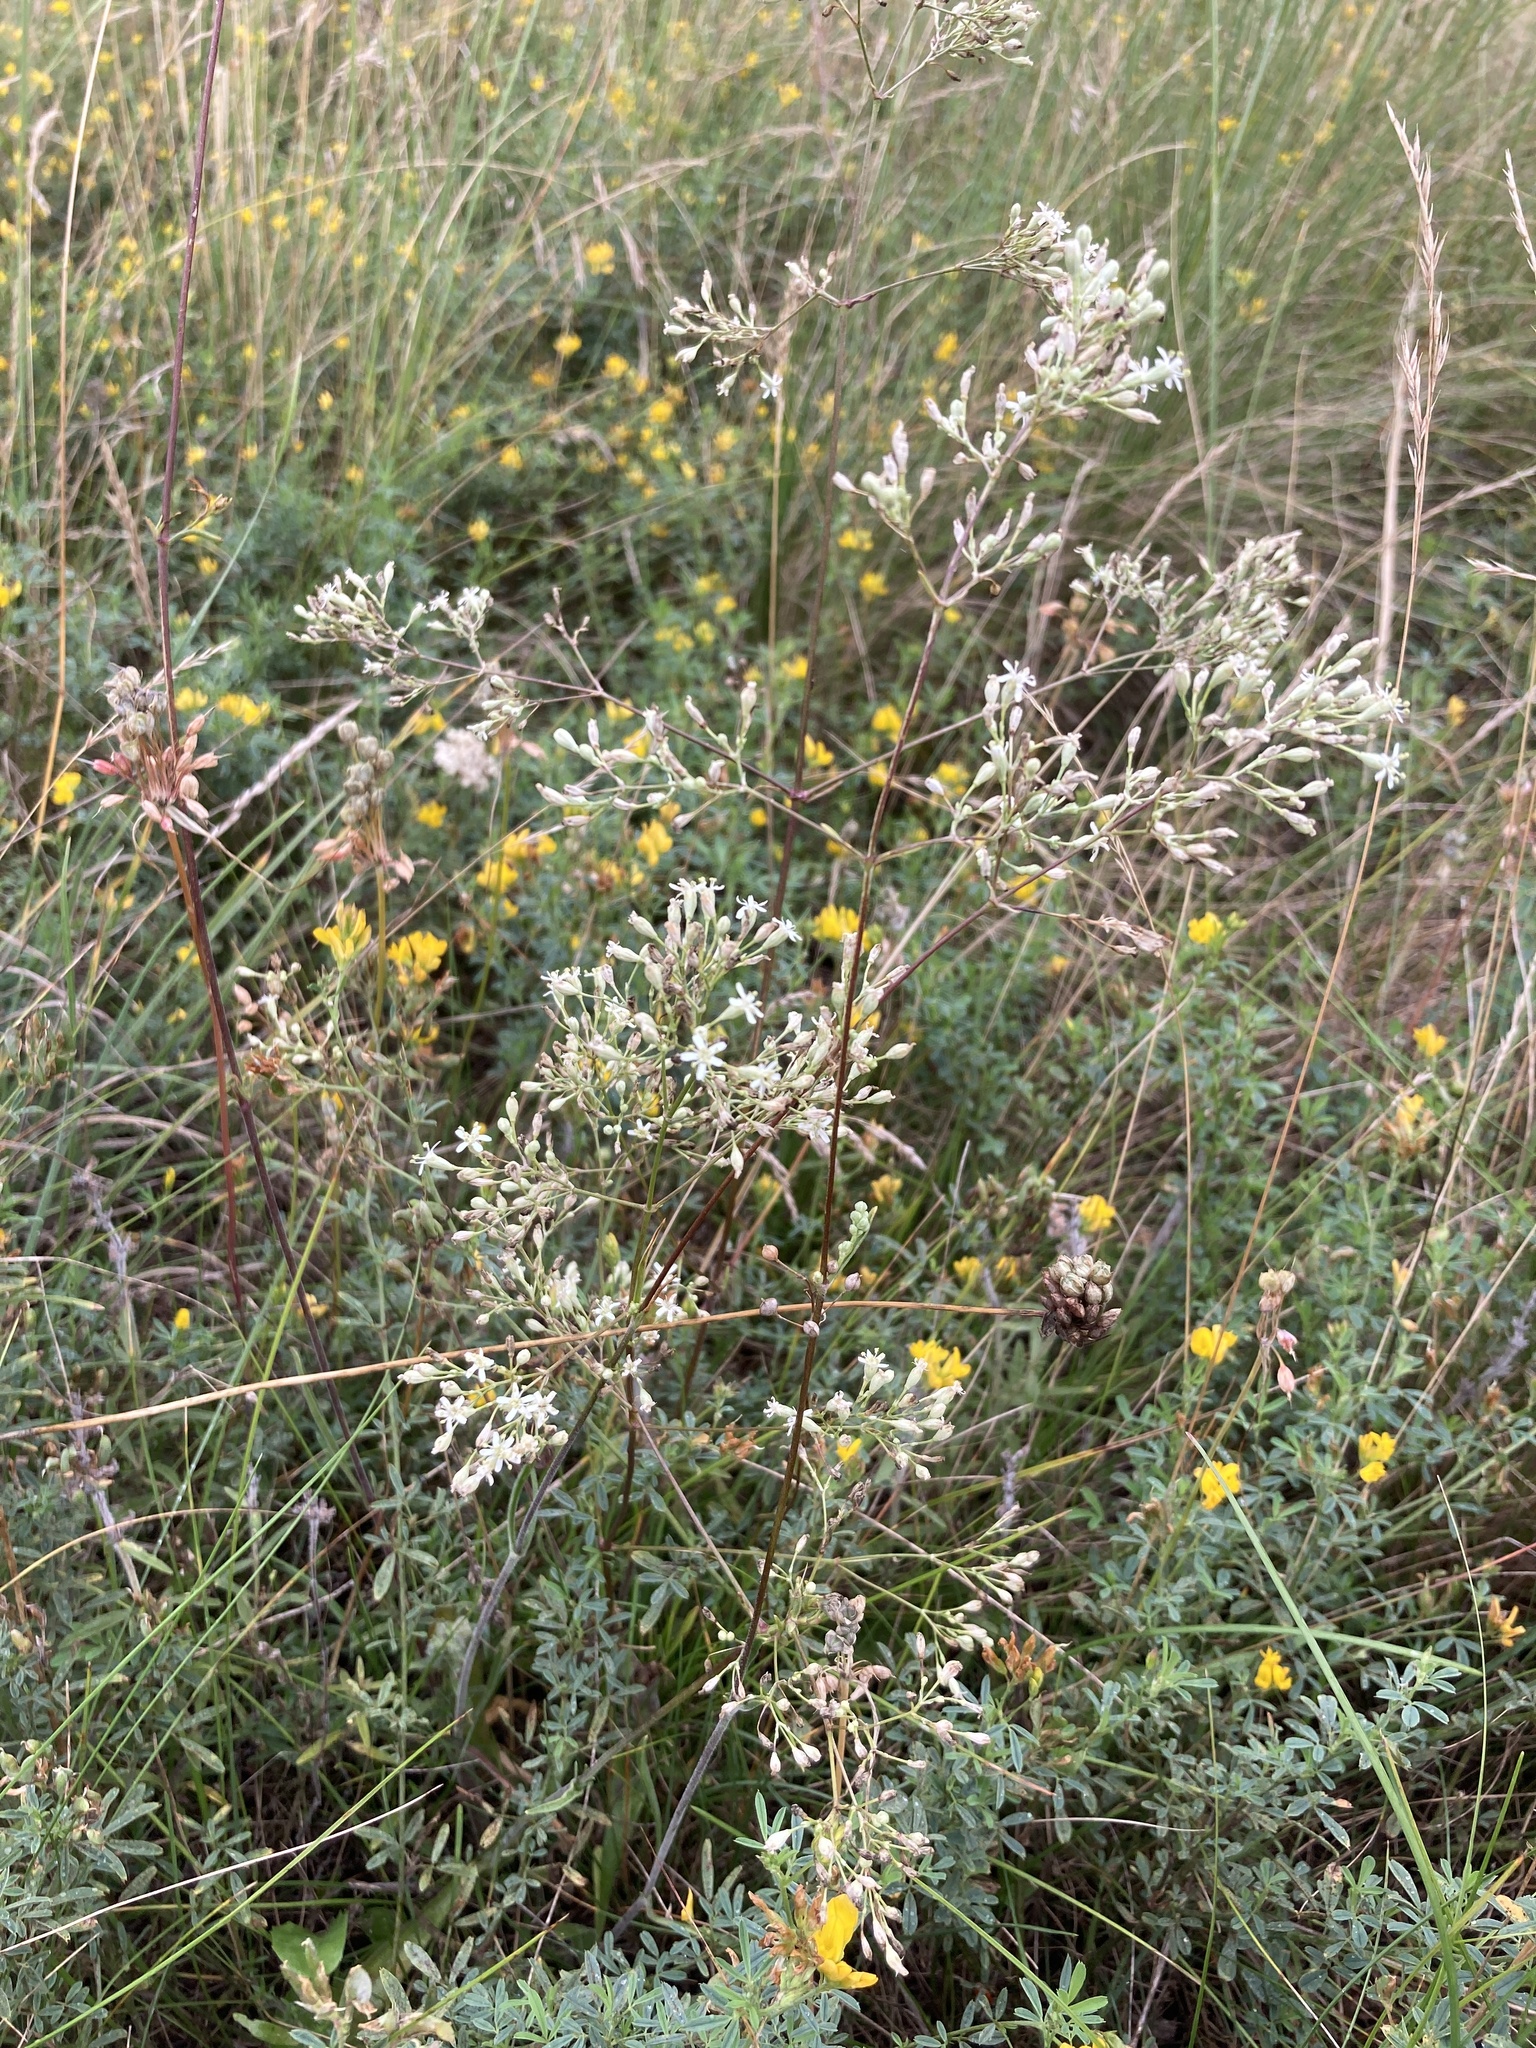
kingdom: Plantae
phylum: Tracheophyta
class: Magnoliopsida
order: Caryophyllales
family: Caryophyllaceae
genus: Silene
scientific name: Silene wolgensis
